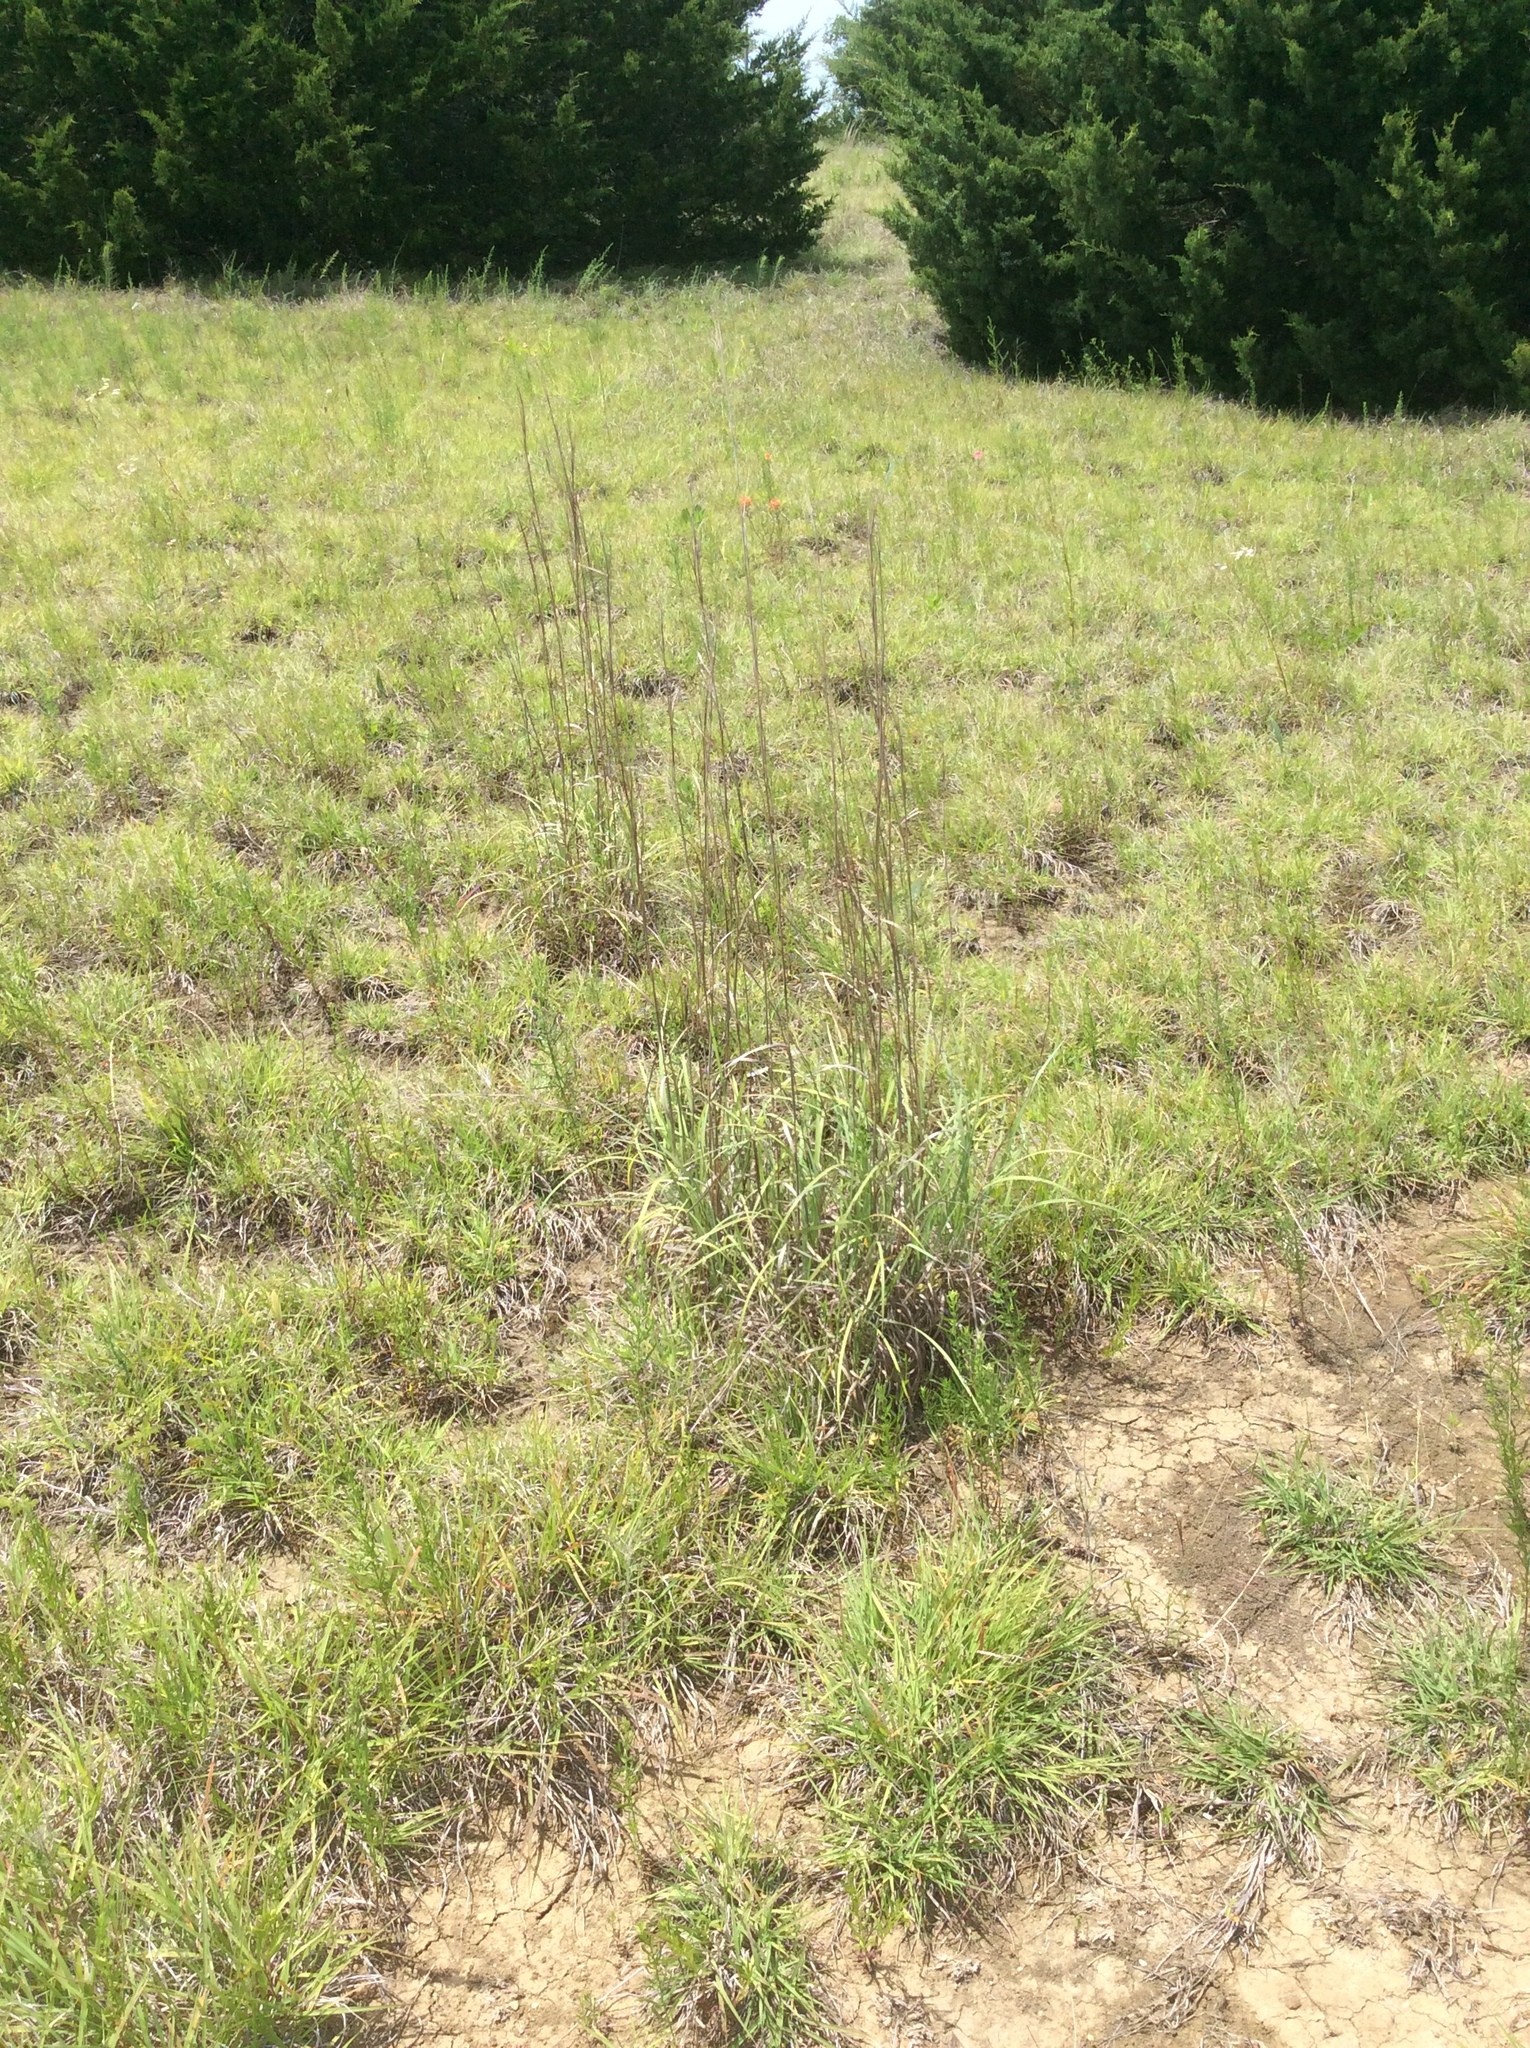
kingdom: Plantae
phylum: Tracheophyta
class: Liliopsida
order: Poales
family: Poaceae
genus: Schizachyrium
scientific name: Schizachyrium scoparium
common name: Little bluestem
